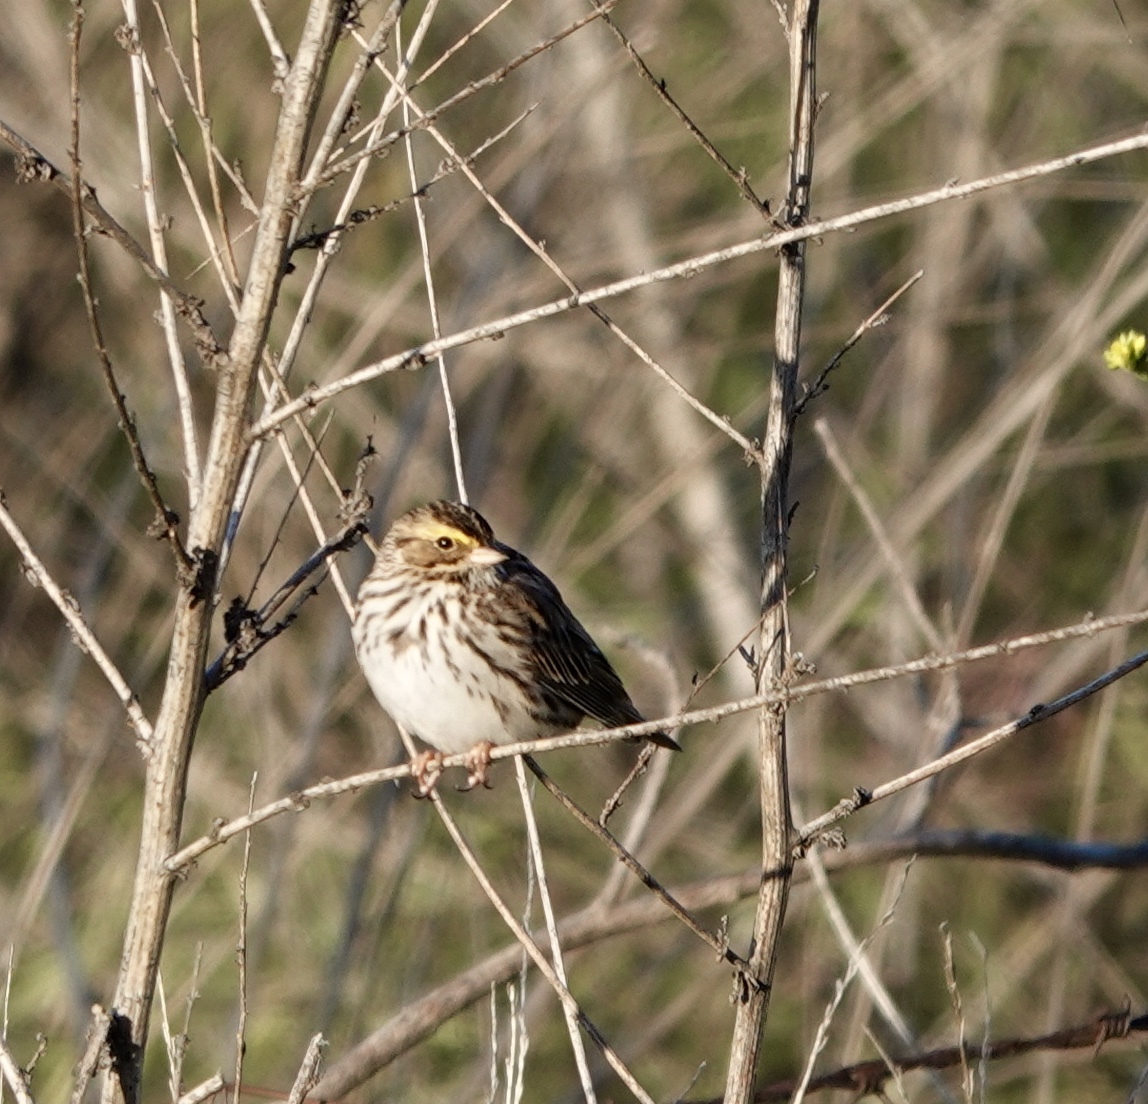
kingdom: Animalia
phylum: Chordata
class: Aves
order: Passeriformes
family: Passerellidae
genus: Passerculus
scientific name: Passerculus sandwichensis
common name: Savannah sparrow
